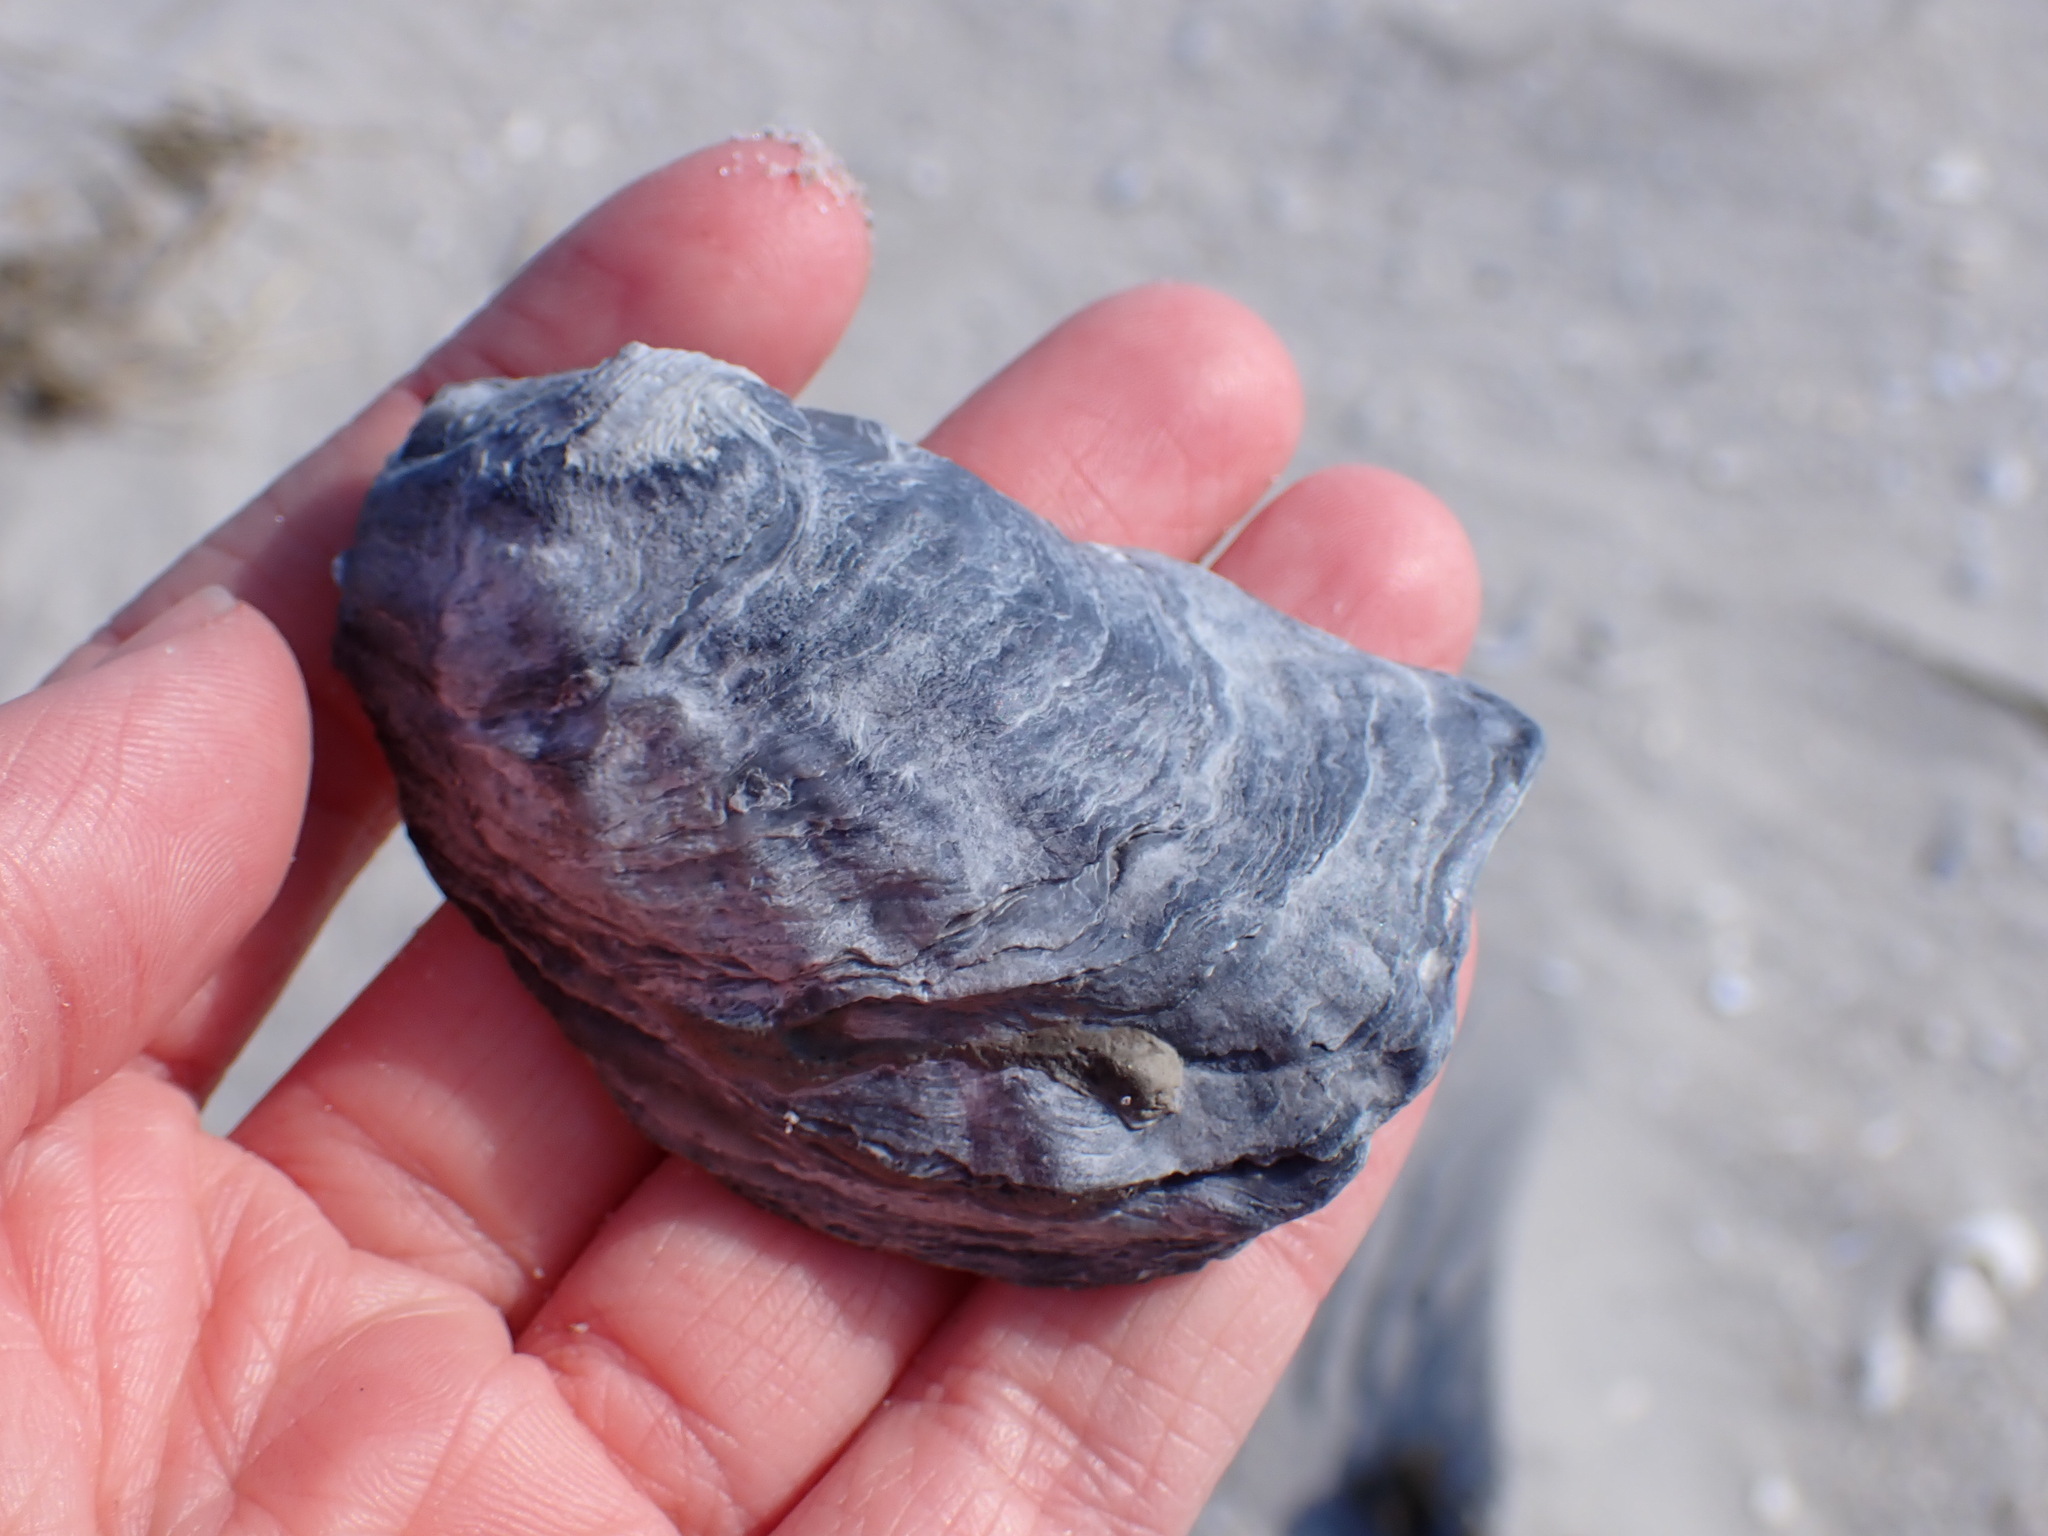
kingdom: Animalia
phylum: Mollusca
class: Bivalvia
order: Ostreida
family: Ostreidae
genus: Crassostrea
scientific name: Crassostrea virginica
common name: American oyster
